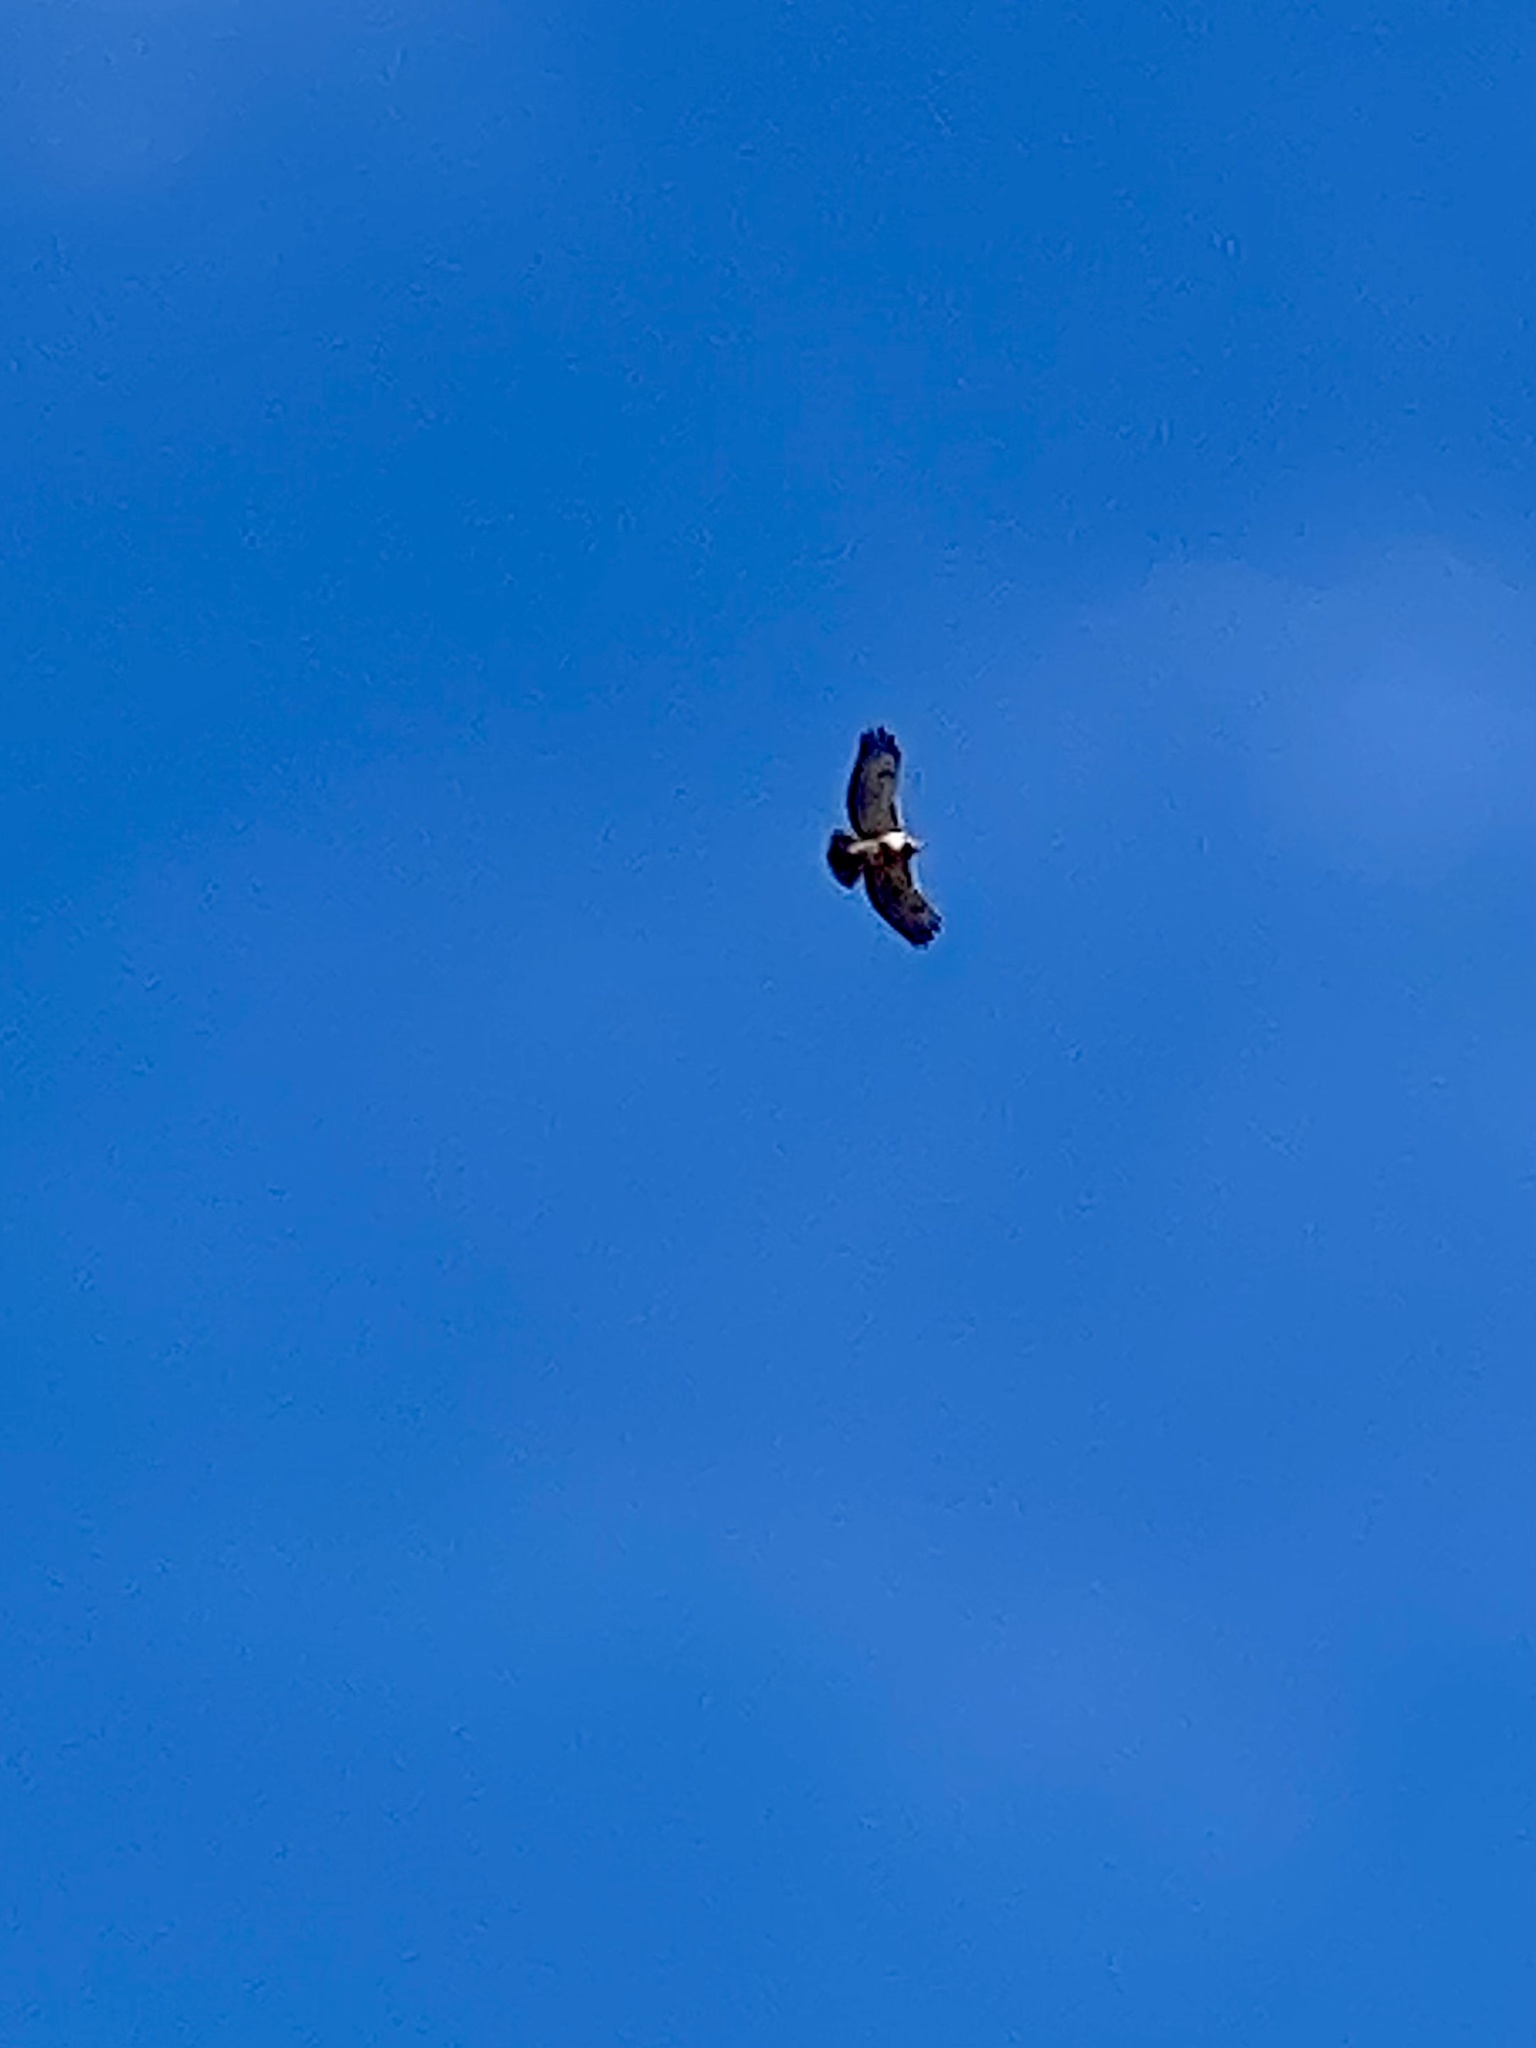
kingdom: Animalia
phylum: Chordata
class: Aves
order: Accipitriformes
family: Accipitridae
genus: Buteo
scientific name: Buteo jamaicensis
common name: Red-tailed hawk
